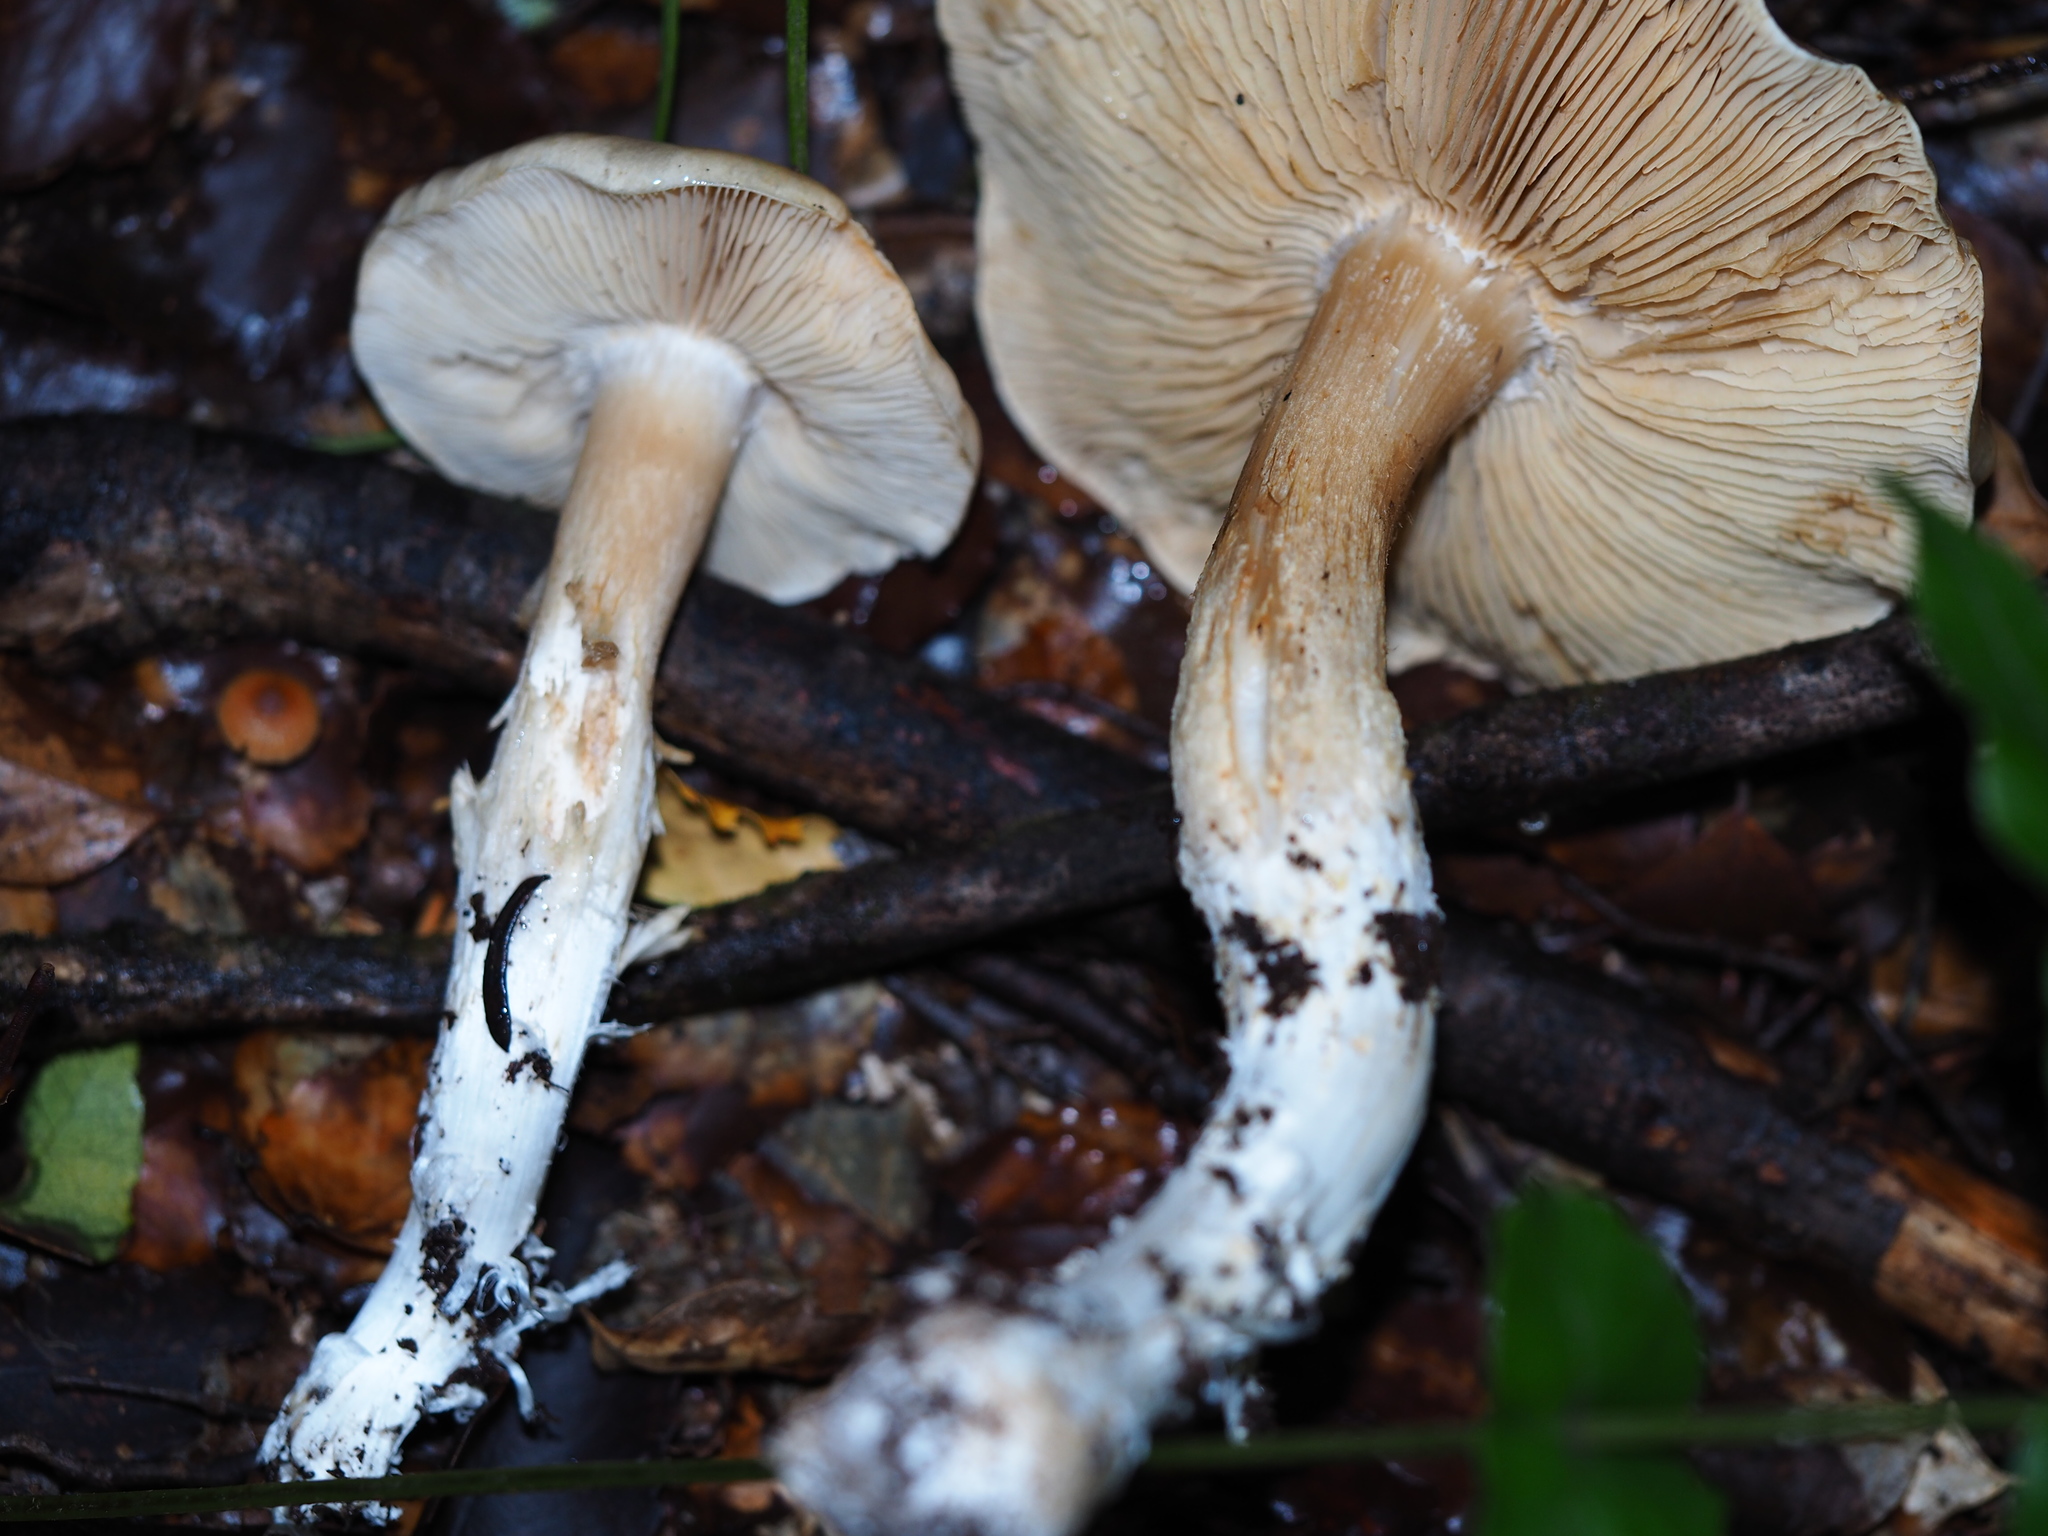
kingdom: Fungi
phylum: Basidiomycota
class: Agaricomycetes
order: Agaricales
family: Cortinariaceae
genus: Thaxterogaster
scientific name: Thaxterogaster persicanus
